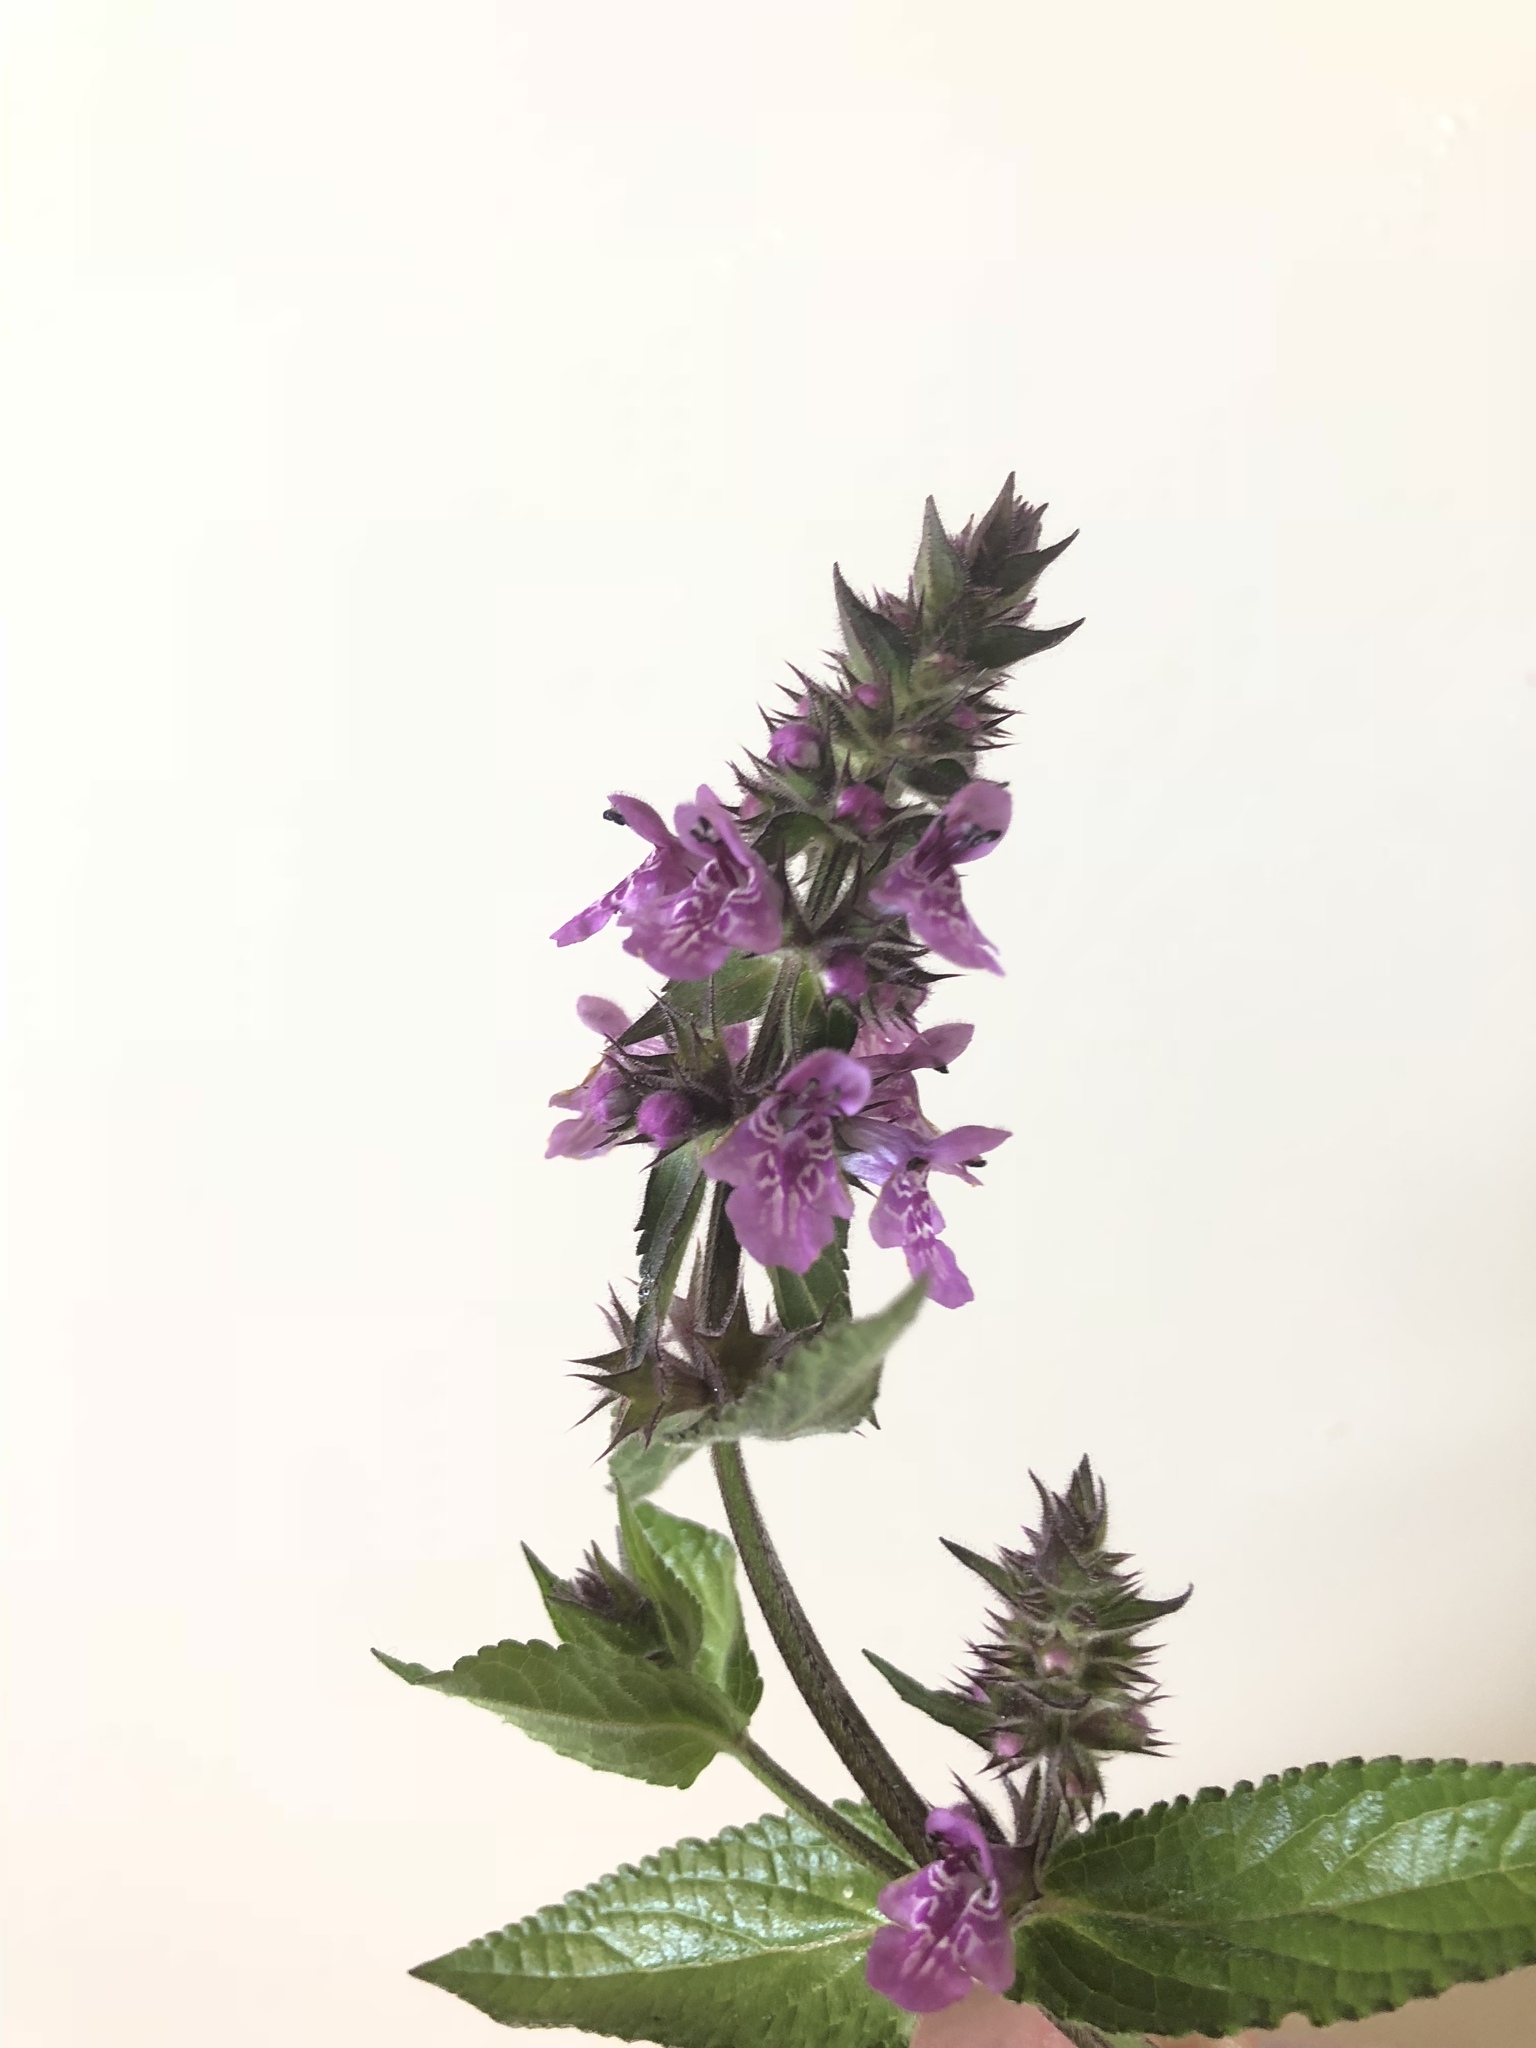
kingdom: Plantae
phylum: Tracheophyta
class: Magnoliopsida
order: Lamiales
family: Lamiaceae
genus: Stachys
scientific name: Stachys palustris
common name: Marsh woundwort
